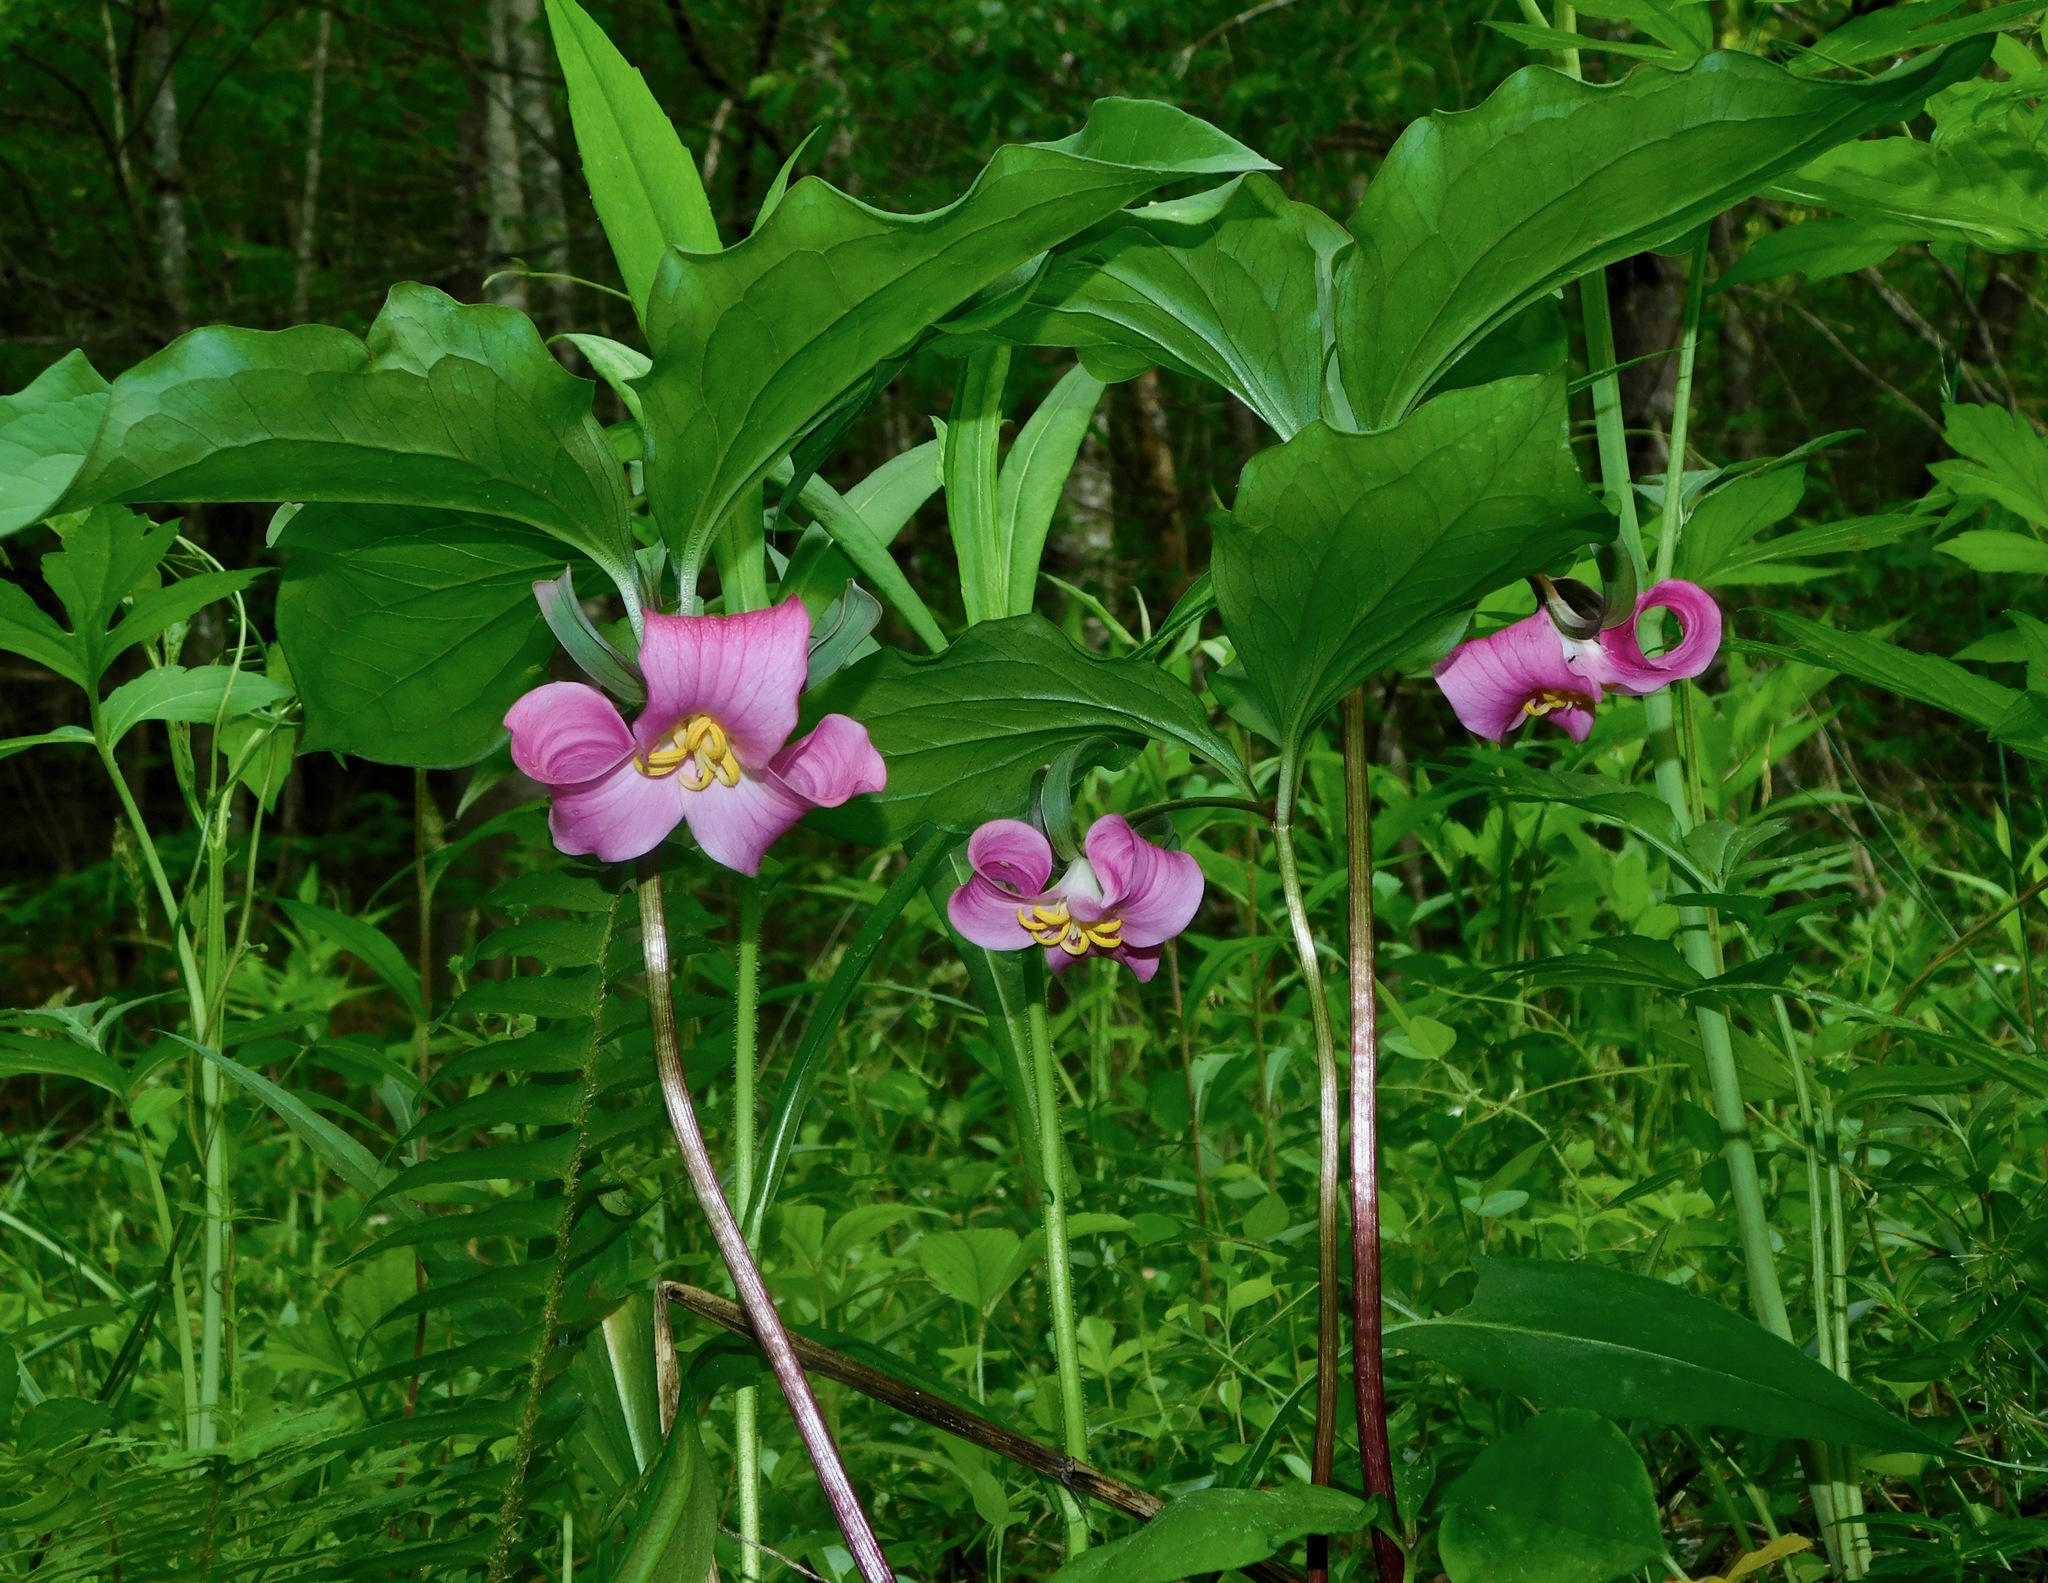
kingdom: Plantae
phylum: Tracheophyta
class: Liliopsida
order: Liliales
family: Melanthiaceae
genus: Trillium
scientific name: Trillium catesbaei
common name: Bashful trillium
